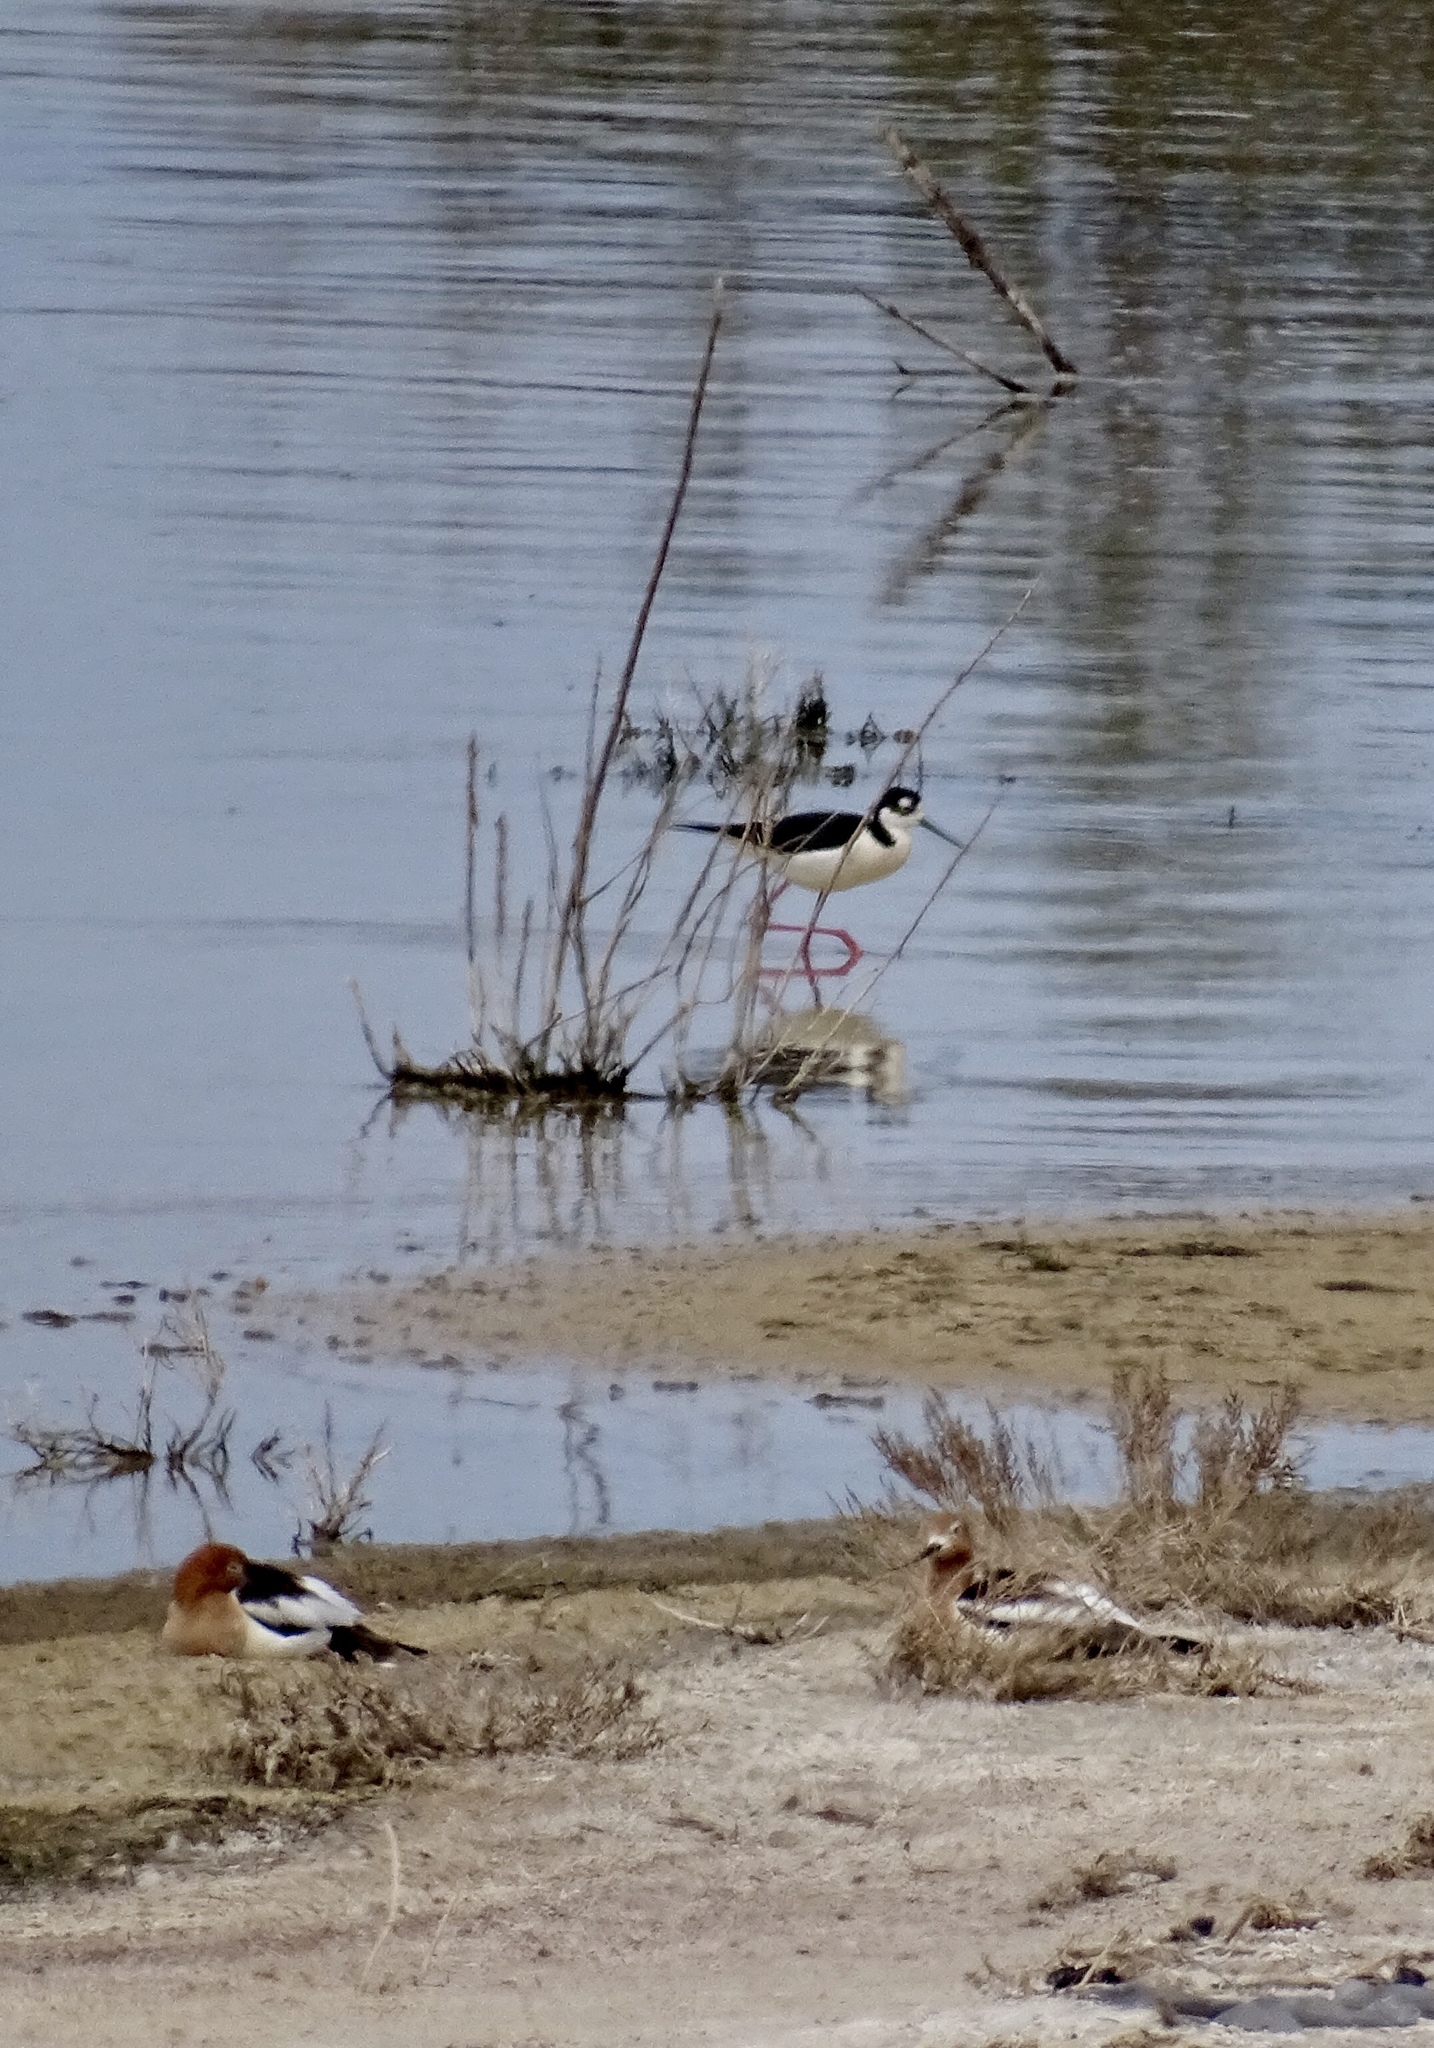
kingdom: Animalia
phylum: Chordata
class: Aves
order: Charadriiformes
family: Recurvirostridae
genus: Himantopus
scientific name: Himantopus mexicanus
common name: Black-necked stilt
